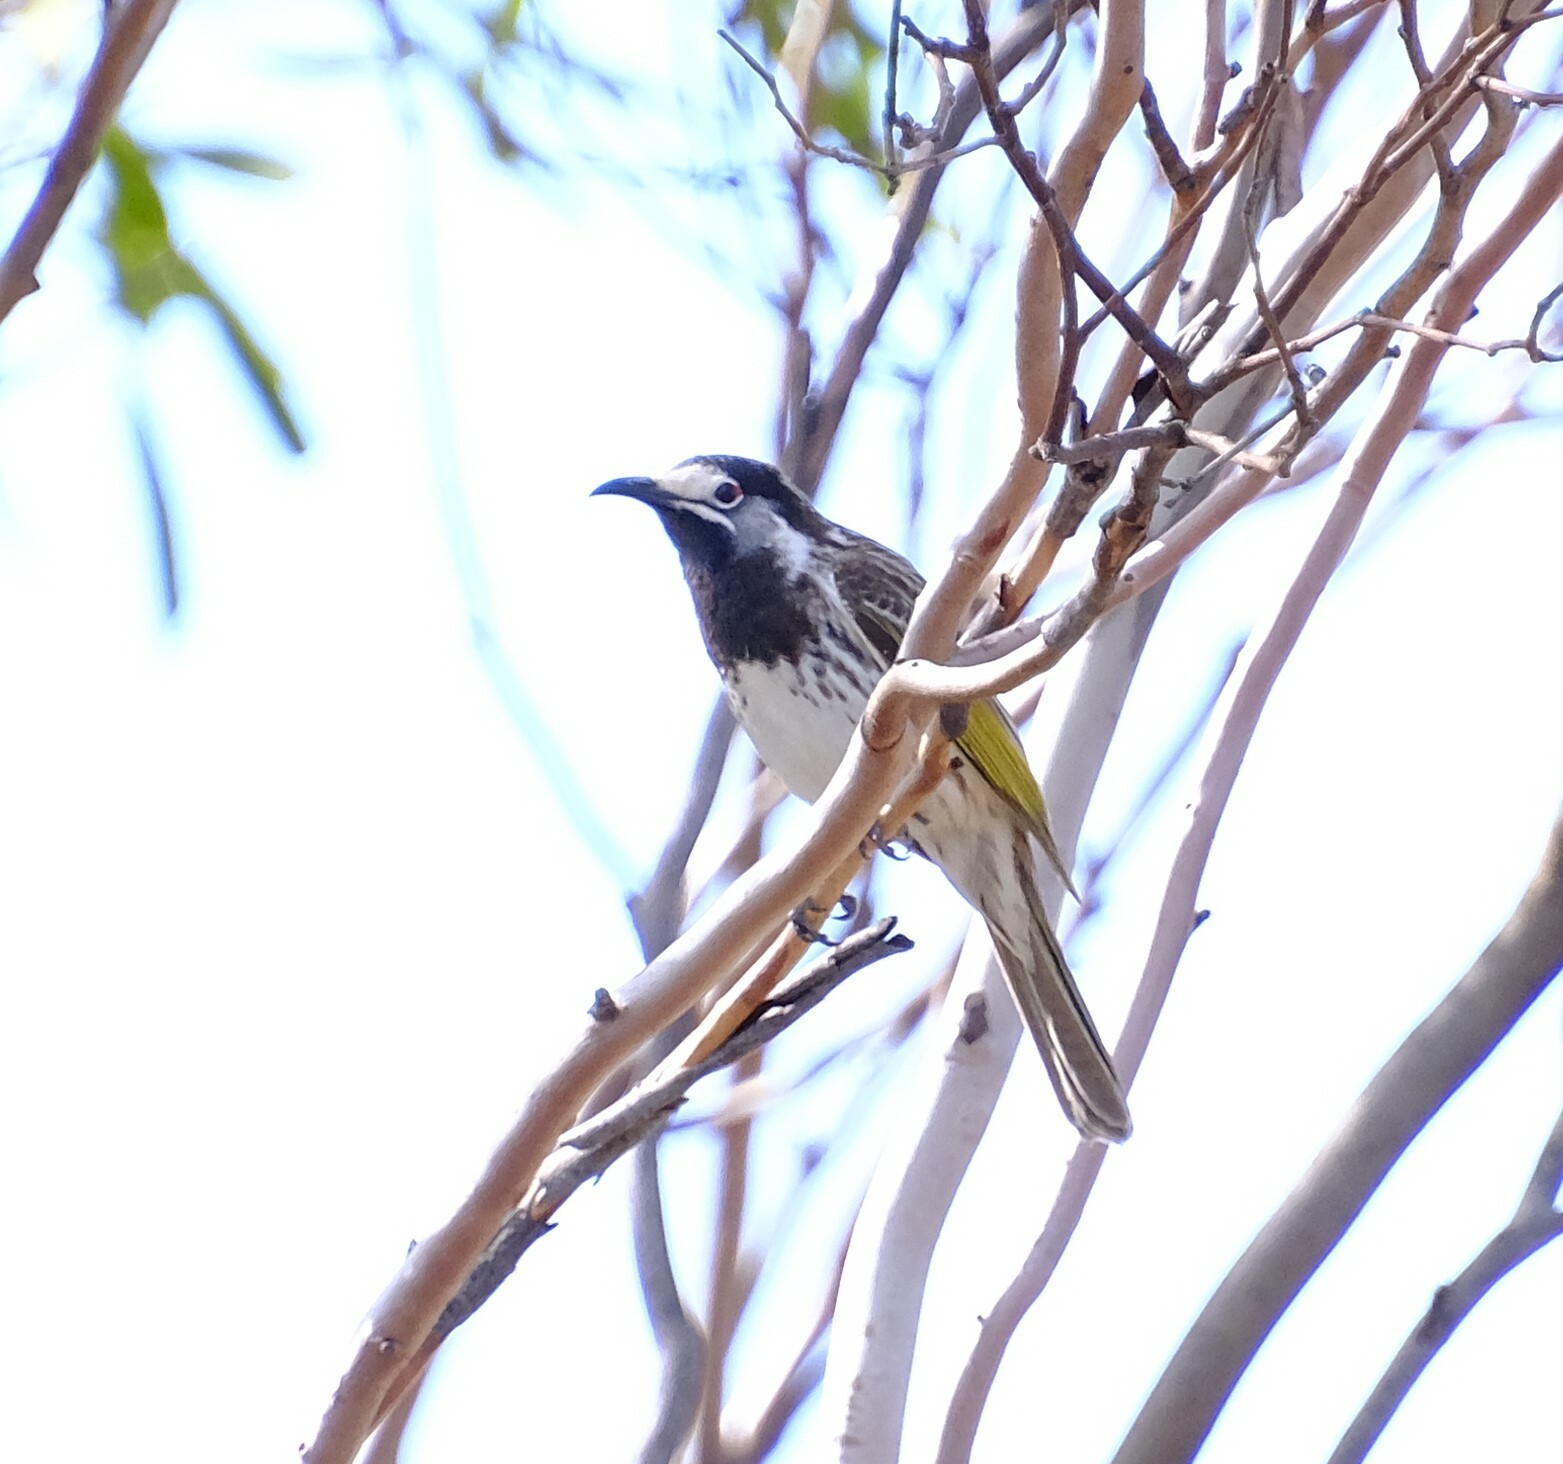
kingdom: Animalia
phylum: Chordata
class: Aves
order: Passeriformes
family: Meliphagidae
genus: Purnella
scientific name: Purnella albifrons
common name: White-fronted honeyeater
